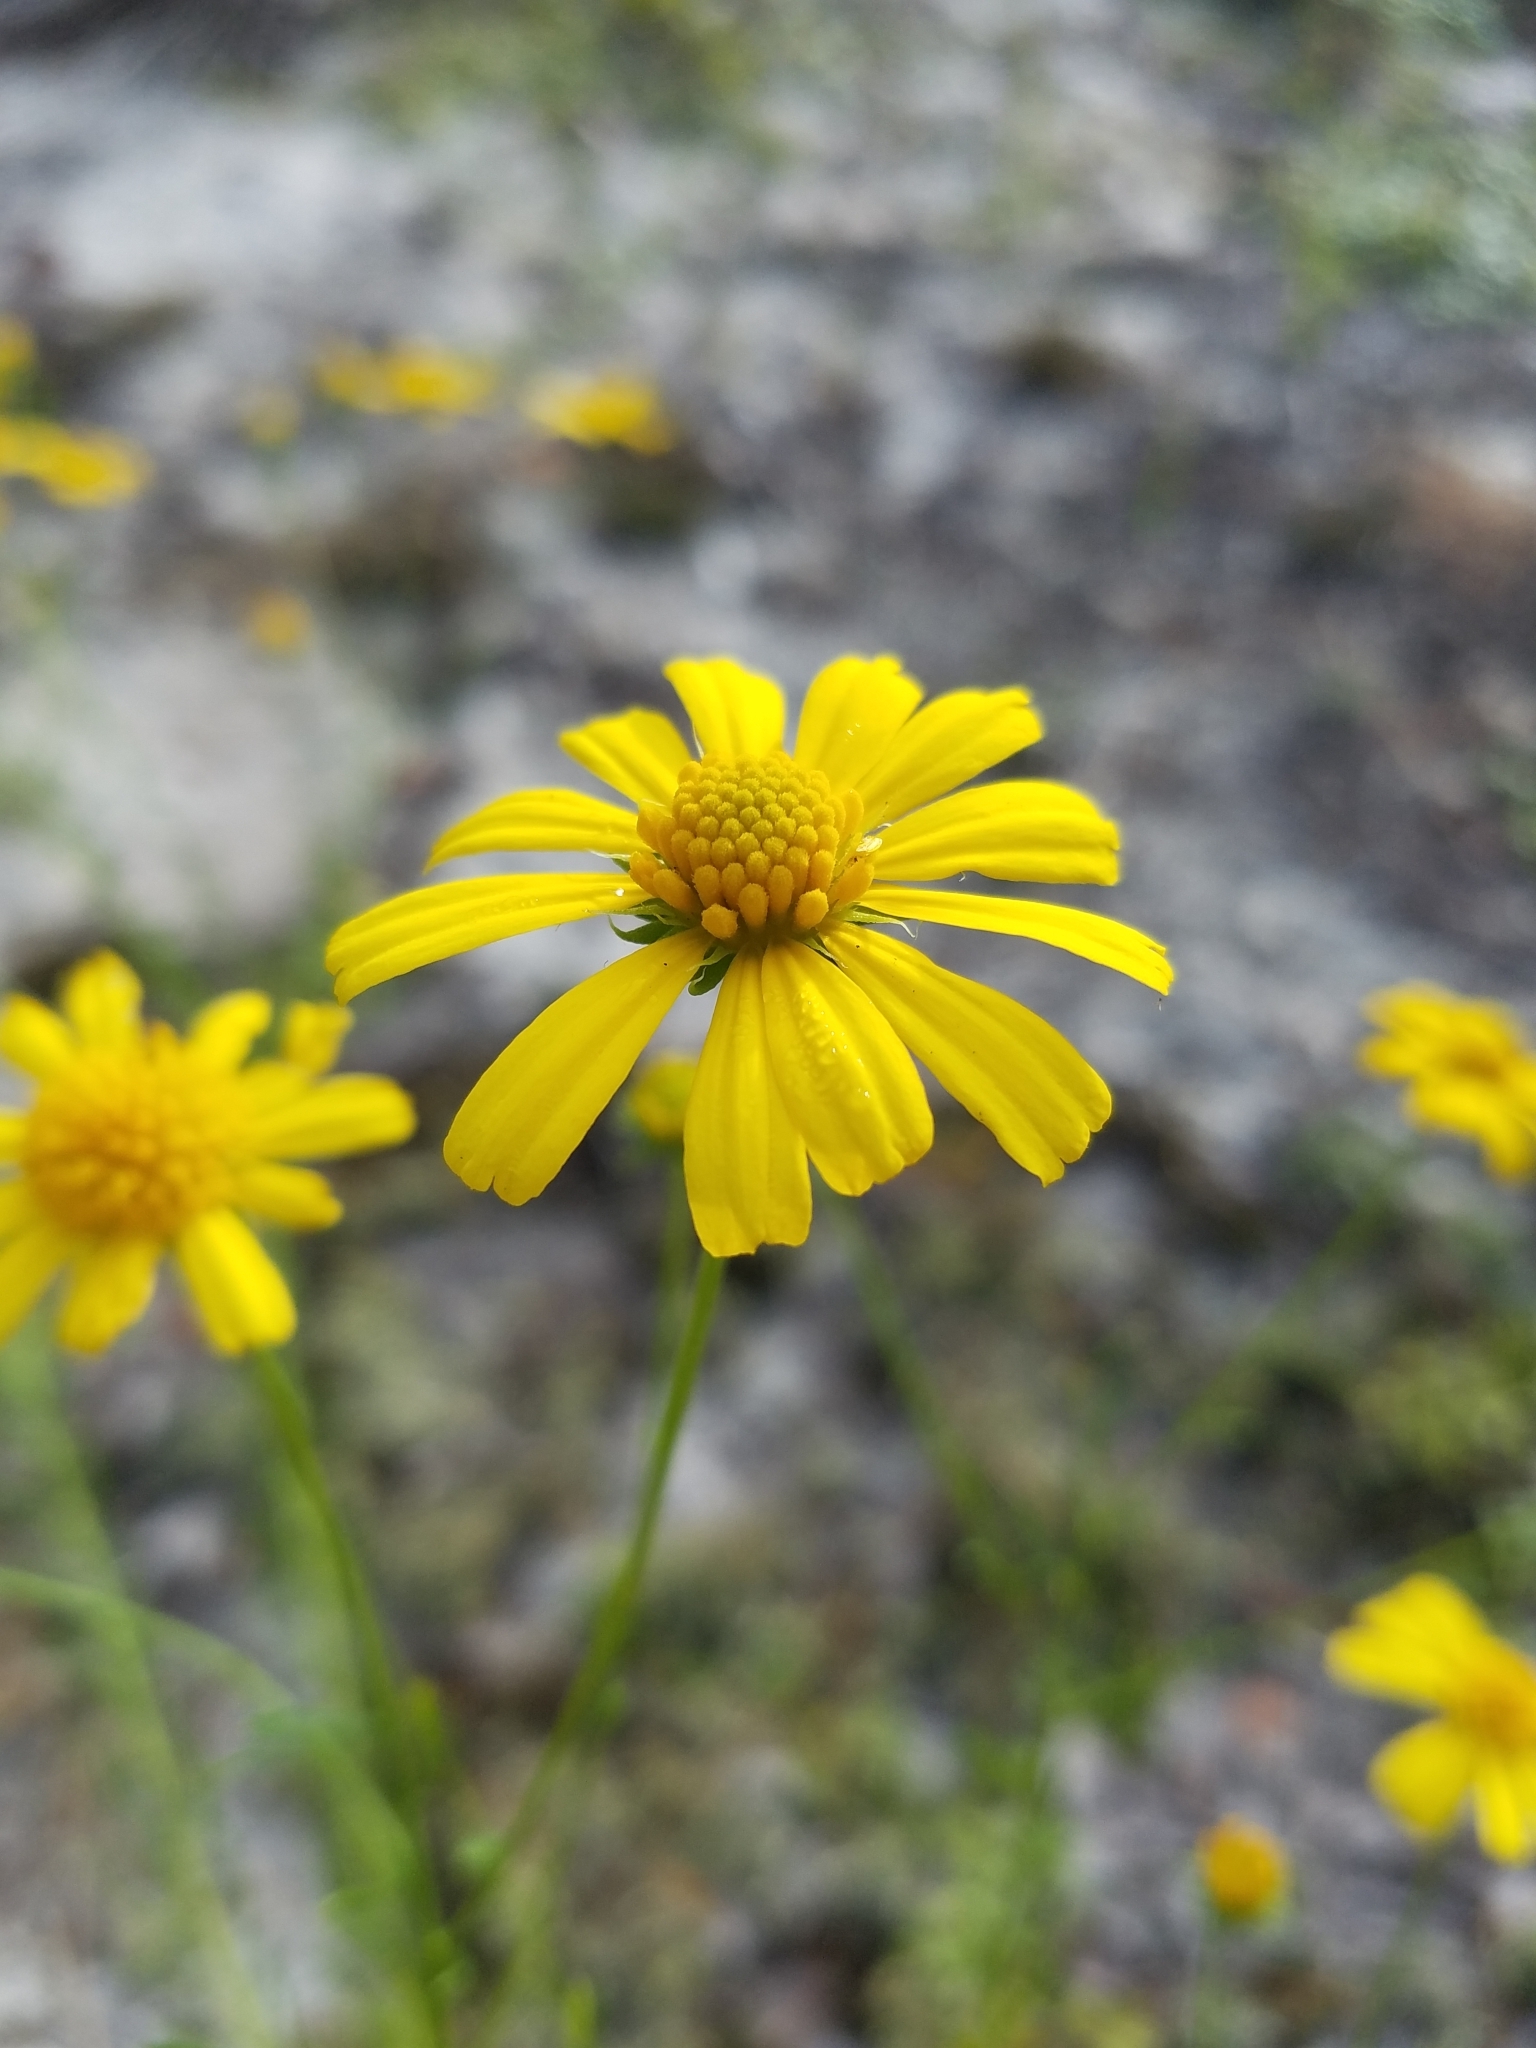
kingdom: Plantae
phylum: Tracheophyta
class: Magnoliopsida
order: Asterales
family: Asteraceae
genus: Balduina
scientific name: Balduina angustifolia
